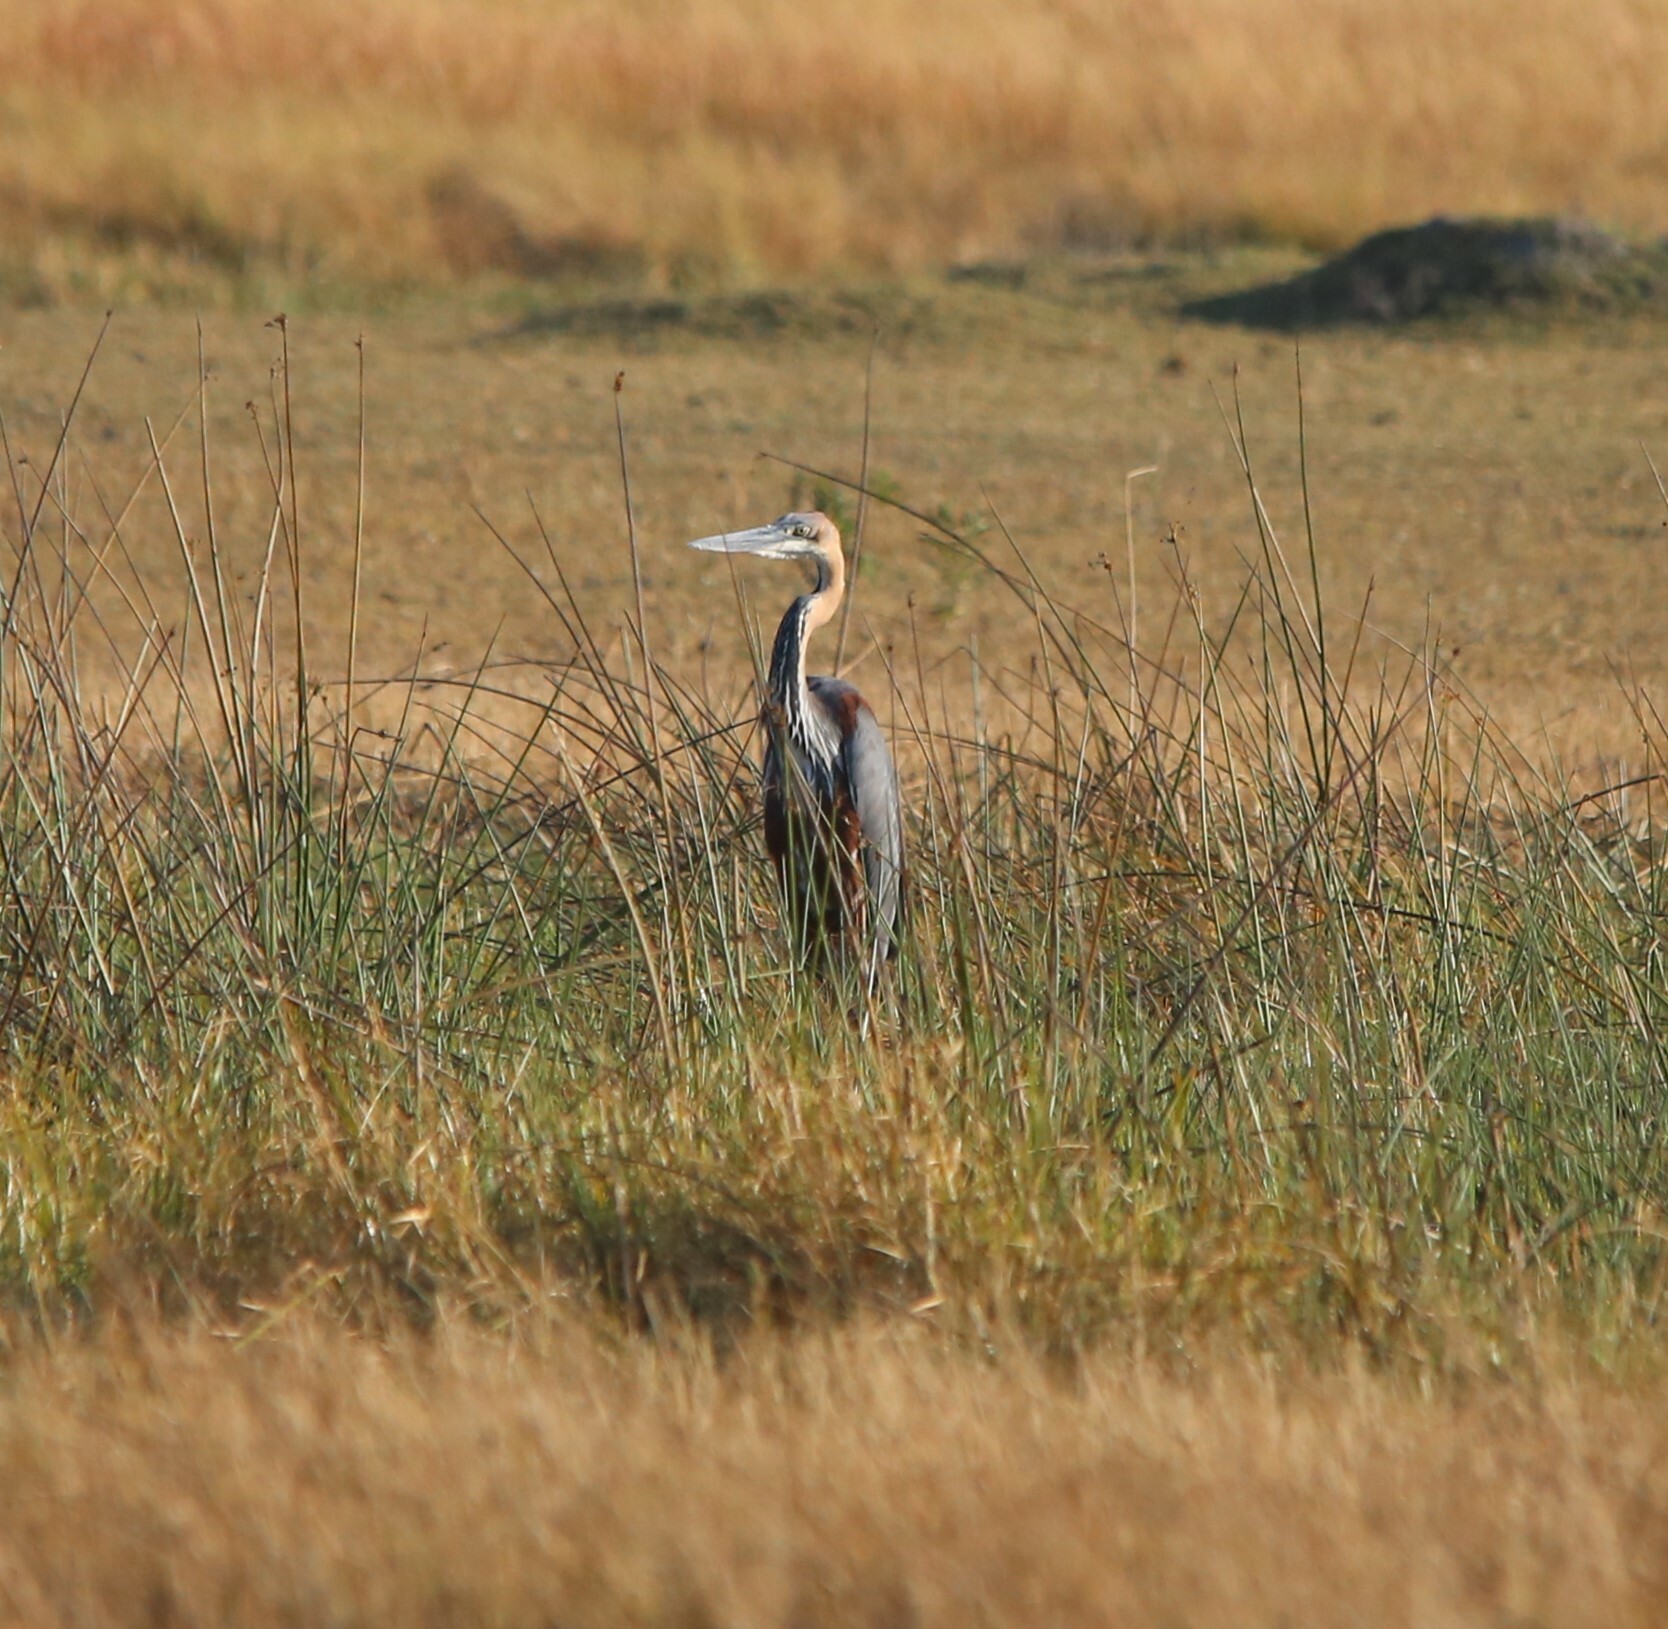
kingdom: Animalia
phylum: Chordata
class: Aves
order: Pelecaniformes
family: Ardeidae
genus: Ardea
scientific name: Ardea goliath
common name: Goliath heron
